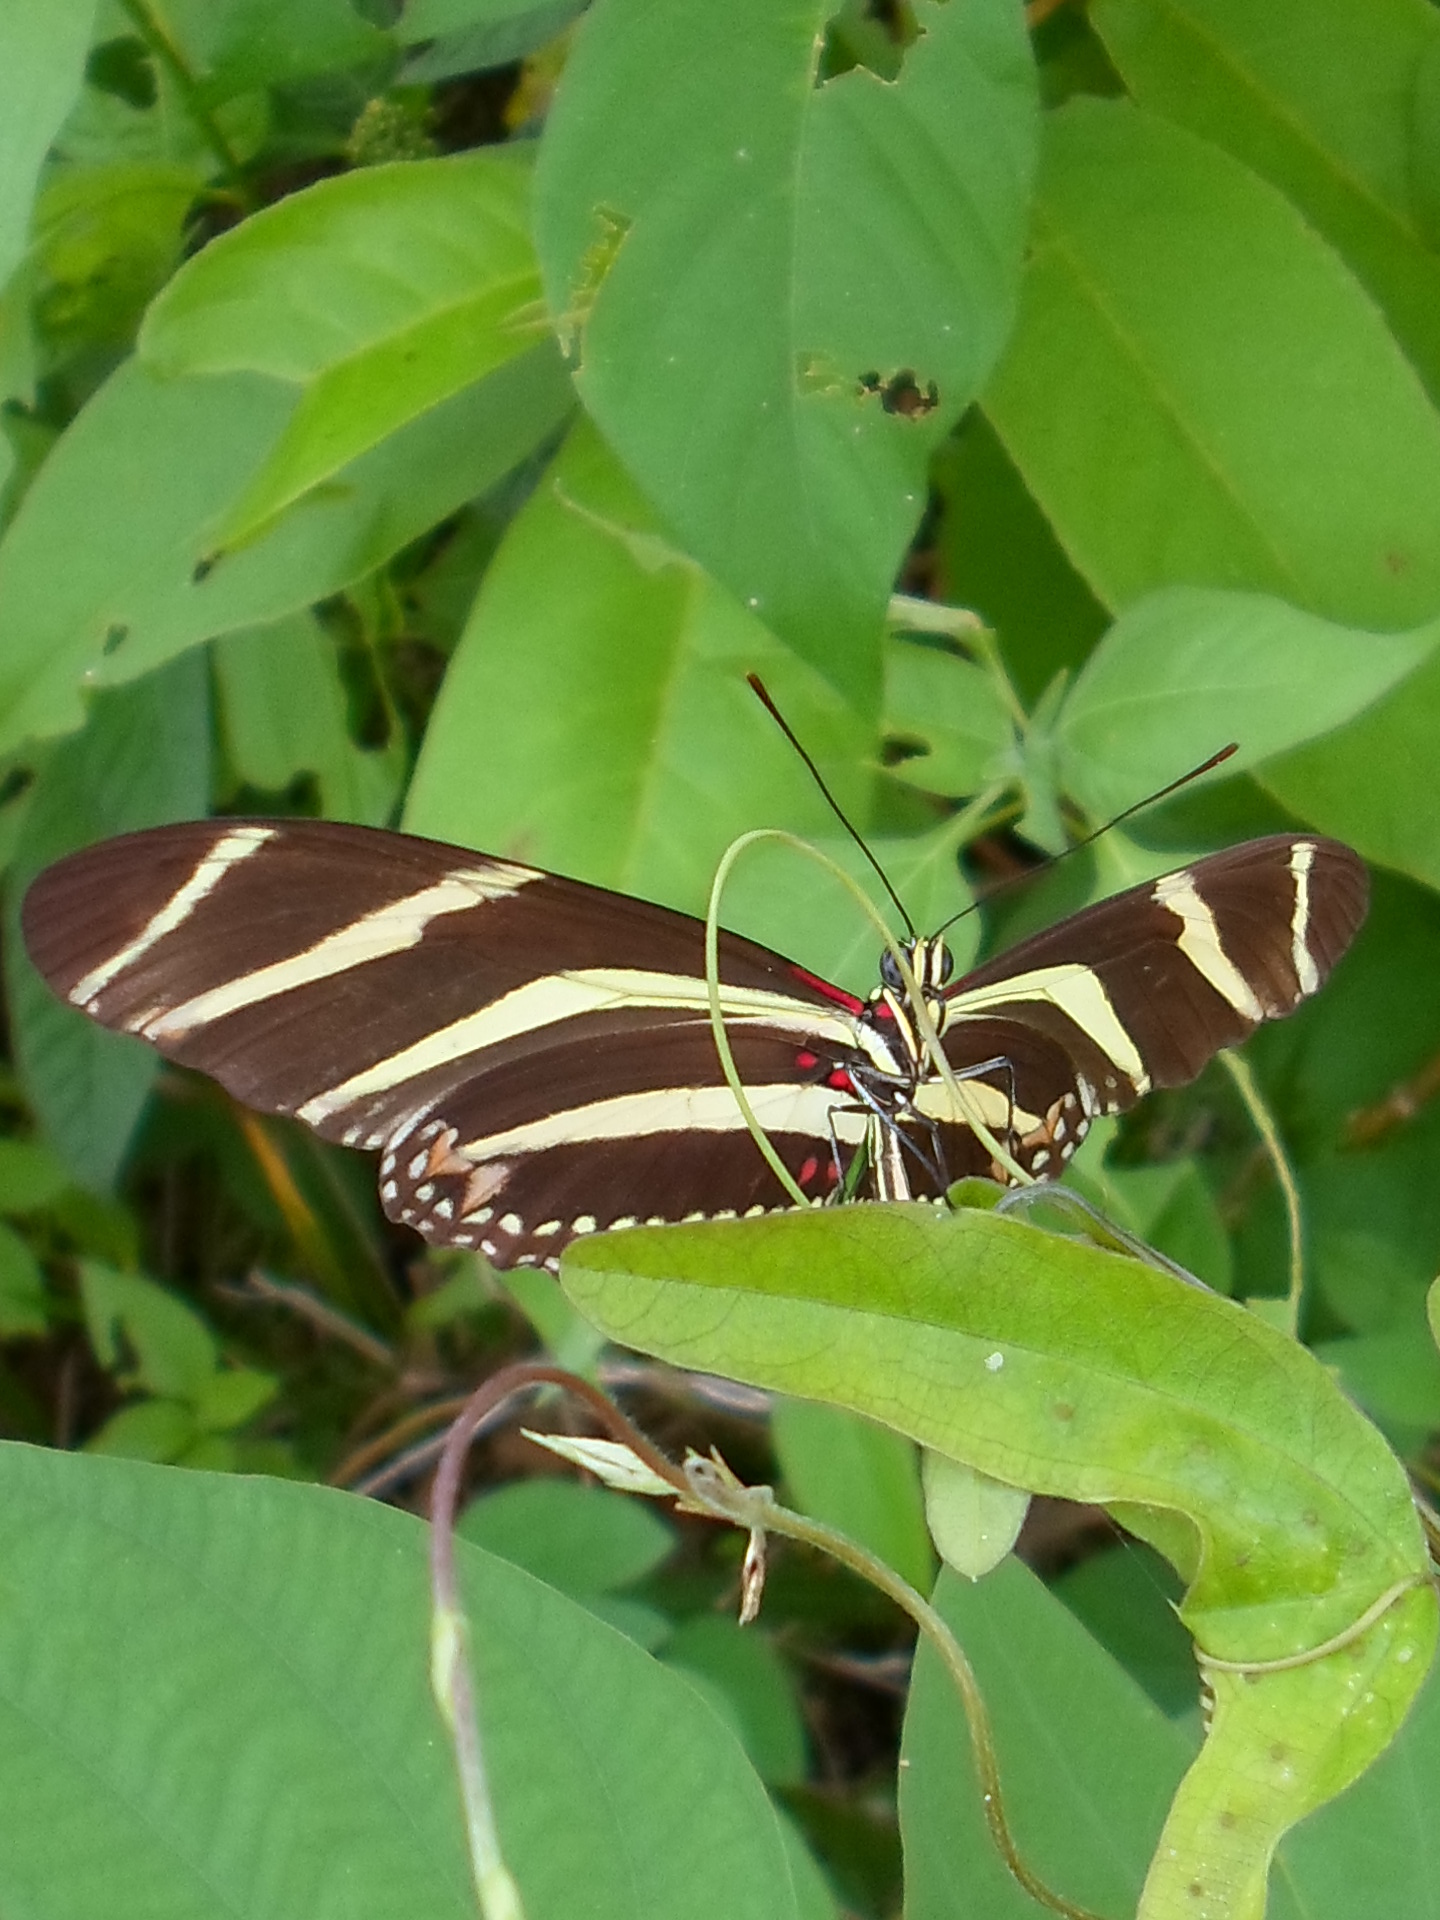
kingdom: Animalia
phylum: Arthropoda
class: Insecta
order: Lepidoptera
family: Nymphalidae
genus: Heliconius
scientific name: Heliconius charithonia
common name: Zebra long wing
